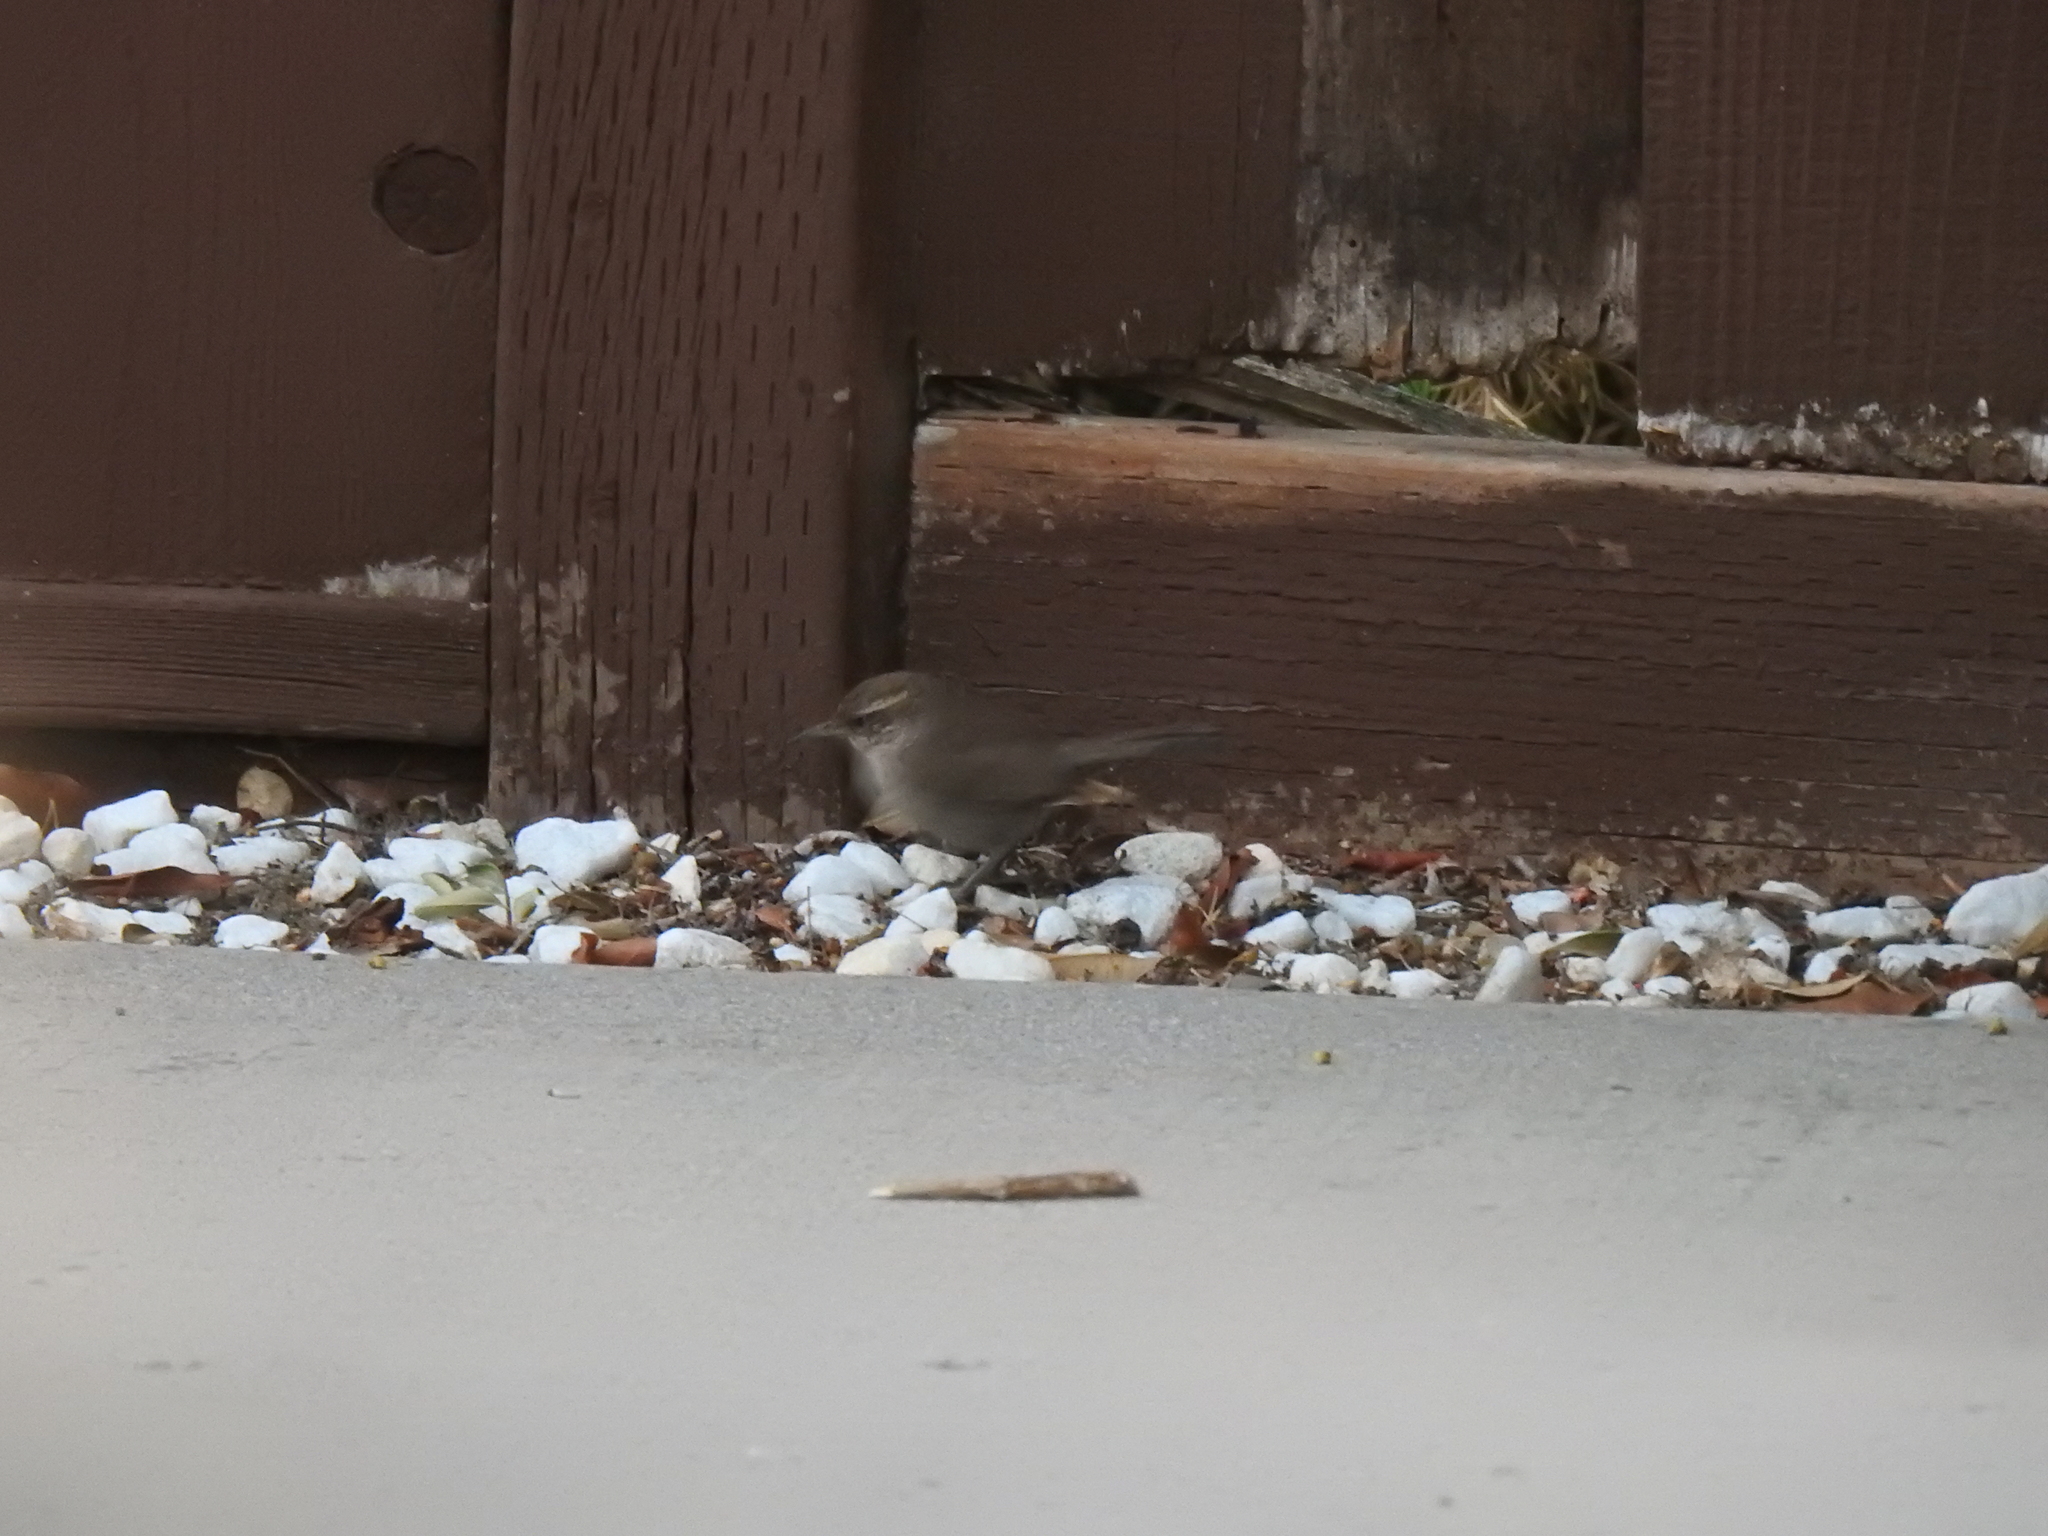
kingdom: Animalia
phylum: Chordata
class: Aves
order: Passeriformes
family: Troglodytidae
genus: Thryomanes
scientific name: Thryomanes bewickii
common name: Bewick's wren
